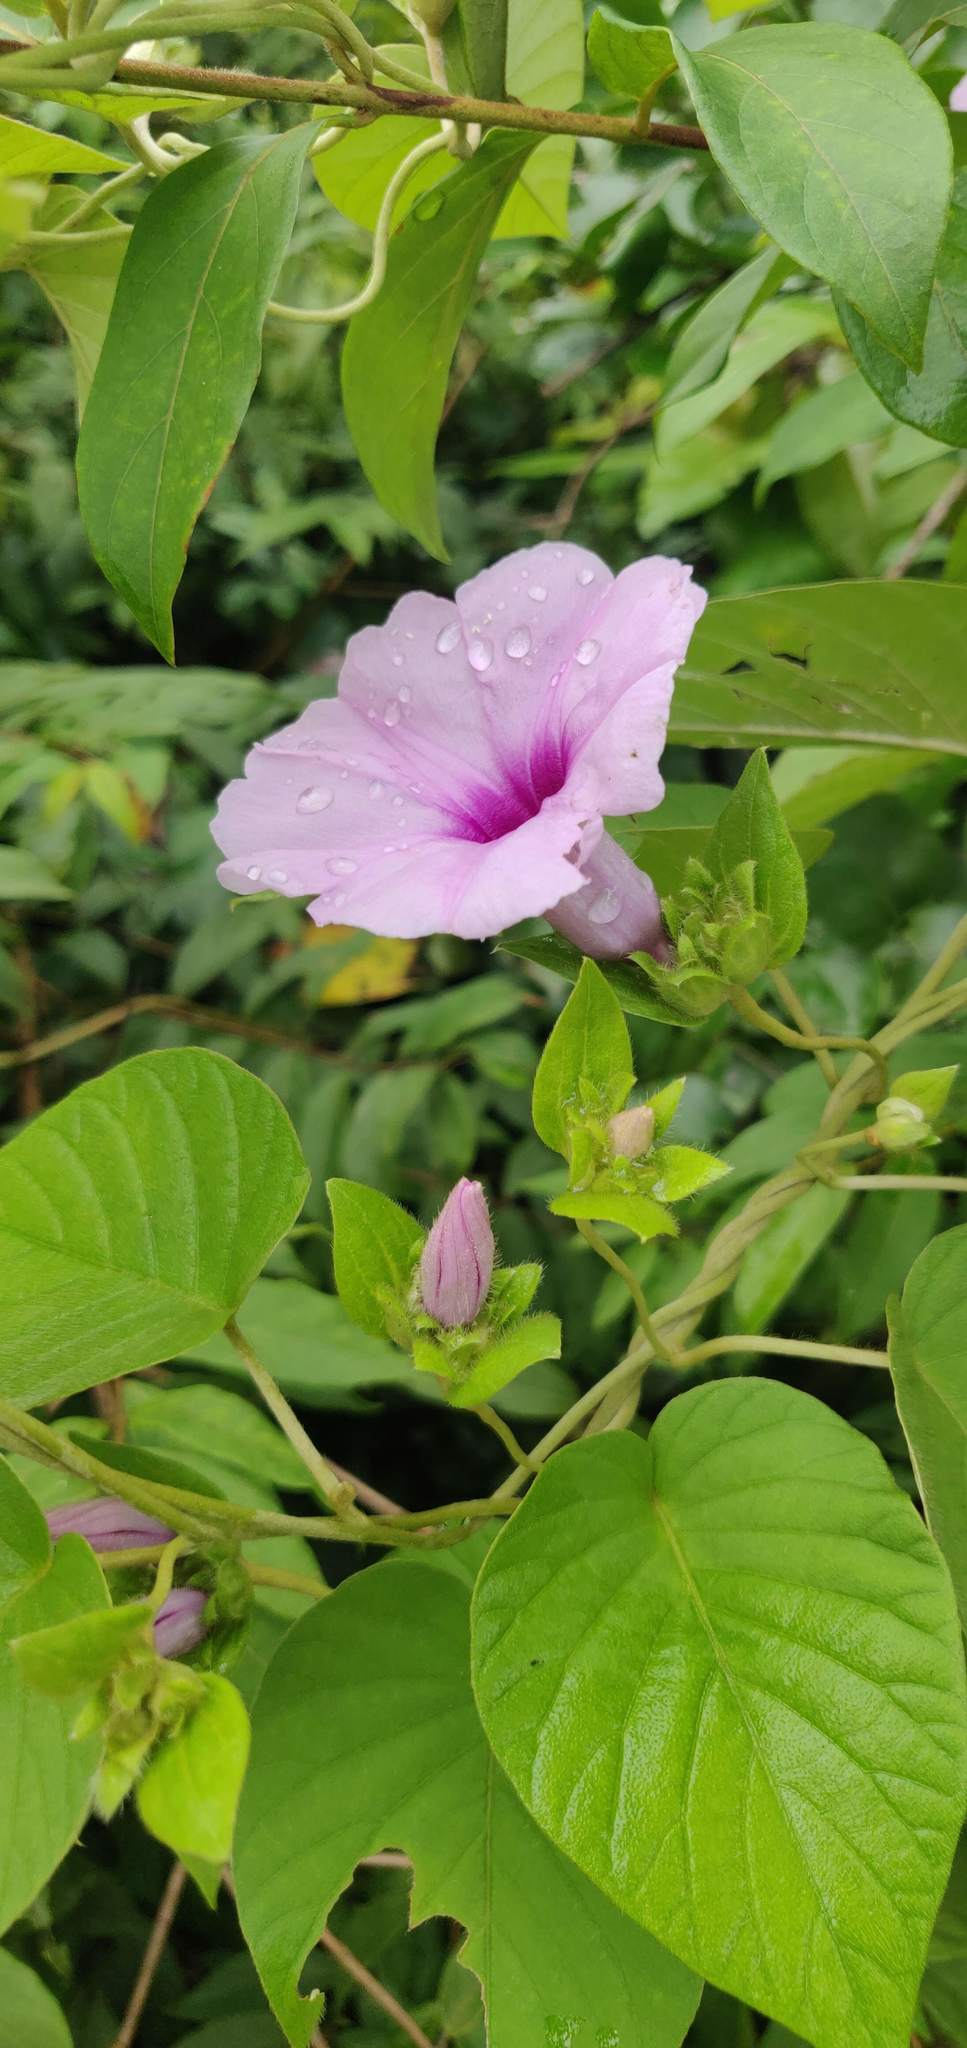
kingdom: Plantae
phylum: Tracheophyta
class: Magnoliopsida
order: Solanales
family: Convolvulaceae
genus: Argyreia
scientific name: Argyreia sericea
